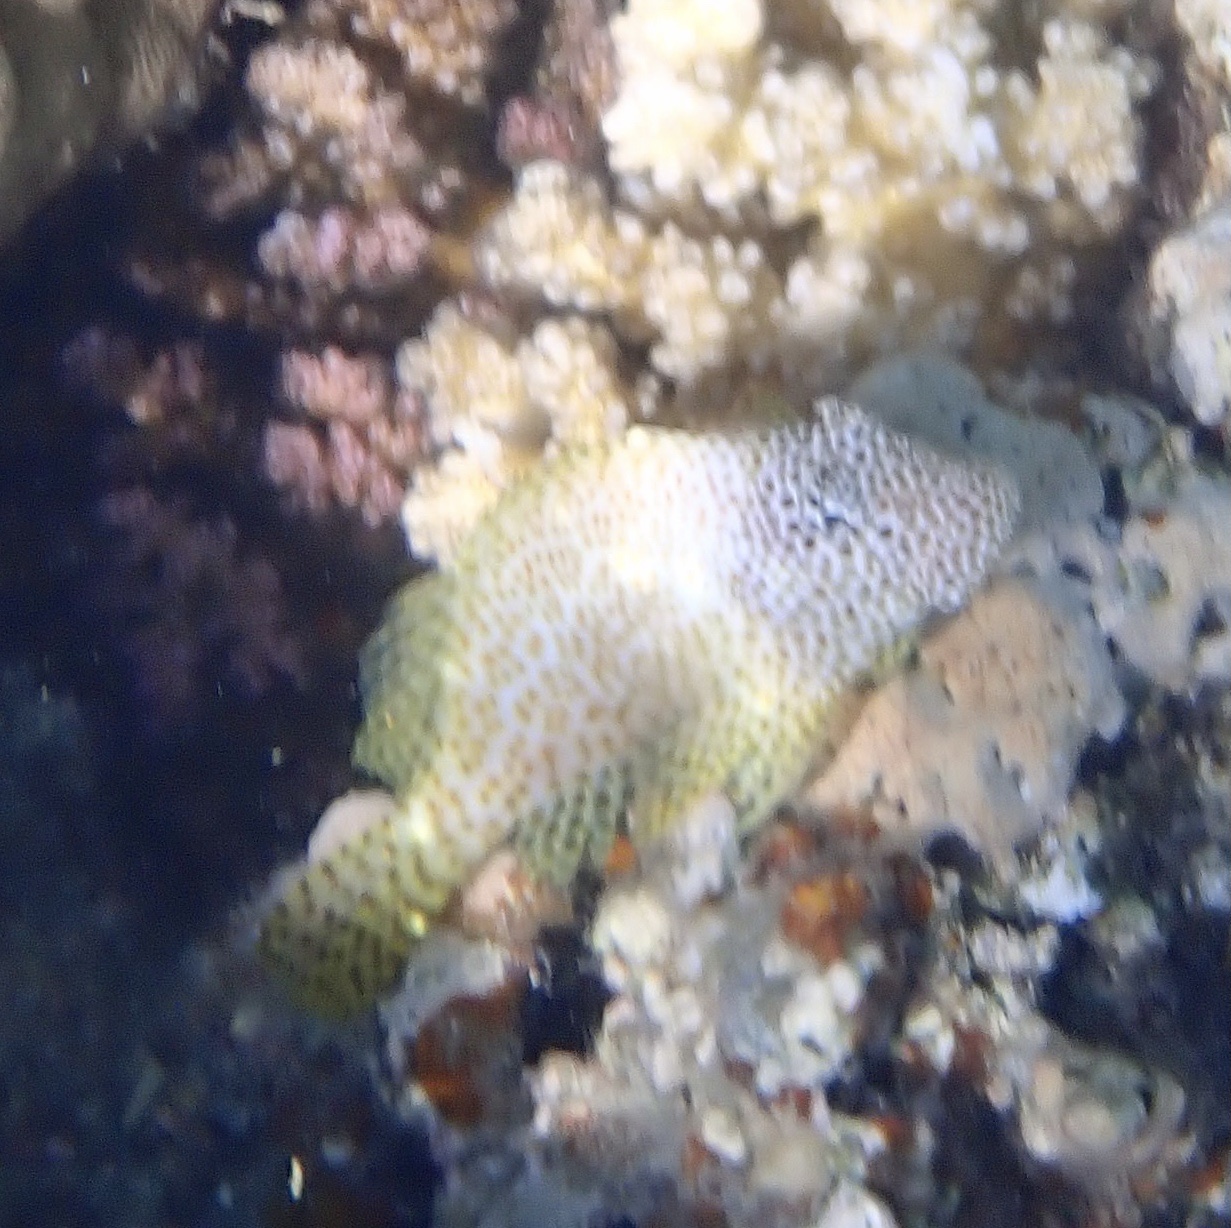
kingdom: Animalia
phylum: Chordata
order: Perciformes
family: Blenniidae
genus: Exallias
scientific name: Exallias brevis
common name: Leopard blenny
